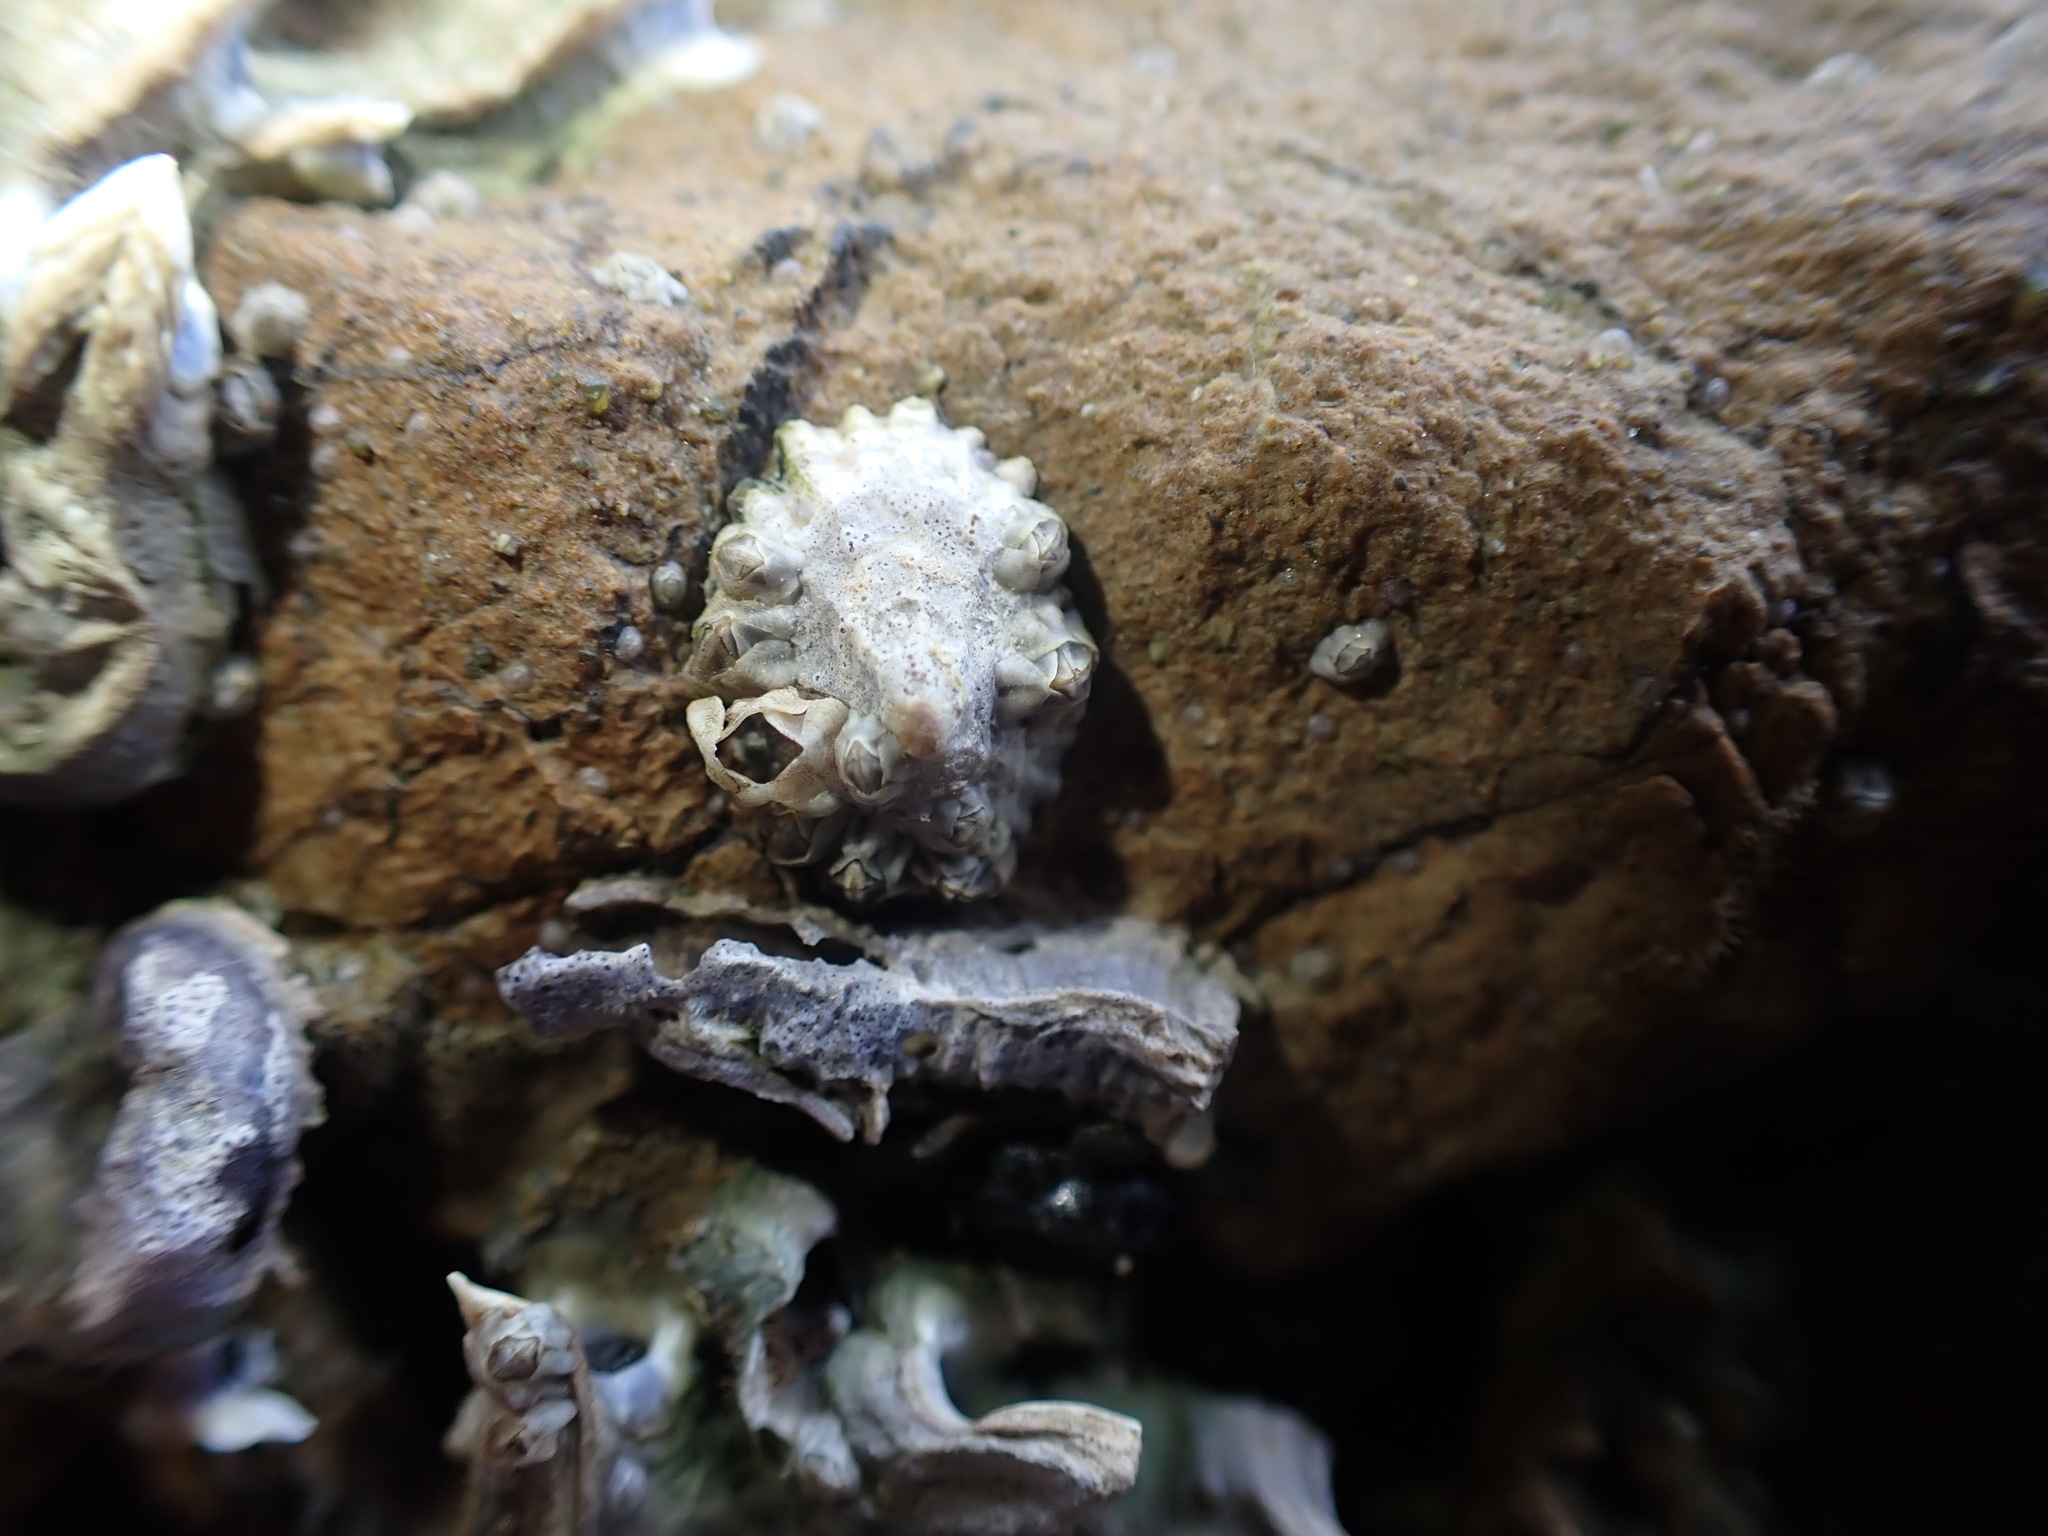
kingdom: Animalia
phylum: Mollusca
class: Gastropoda
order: Siphonariida
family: Siphonariidae
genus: Siphonaria
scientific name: Siphonaria australis
